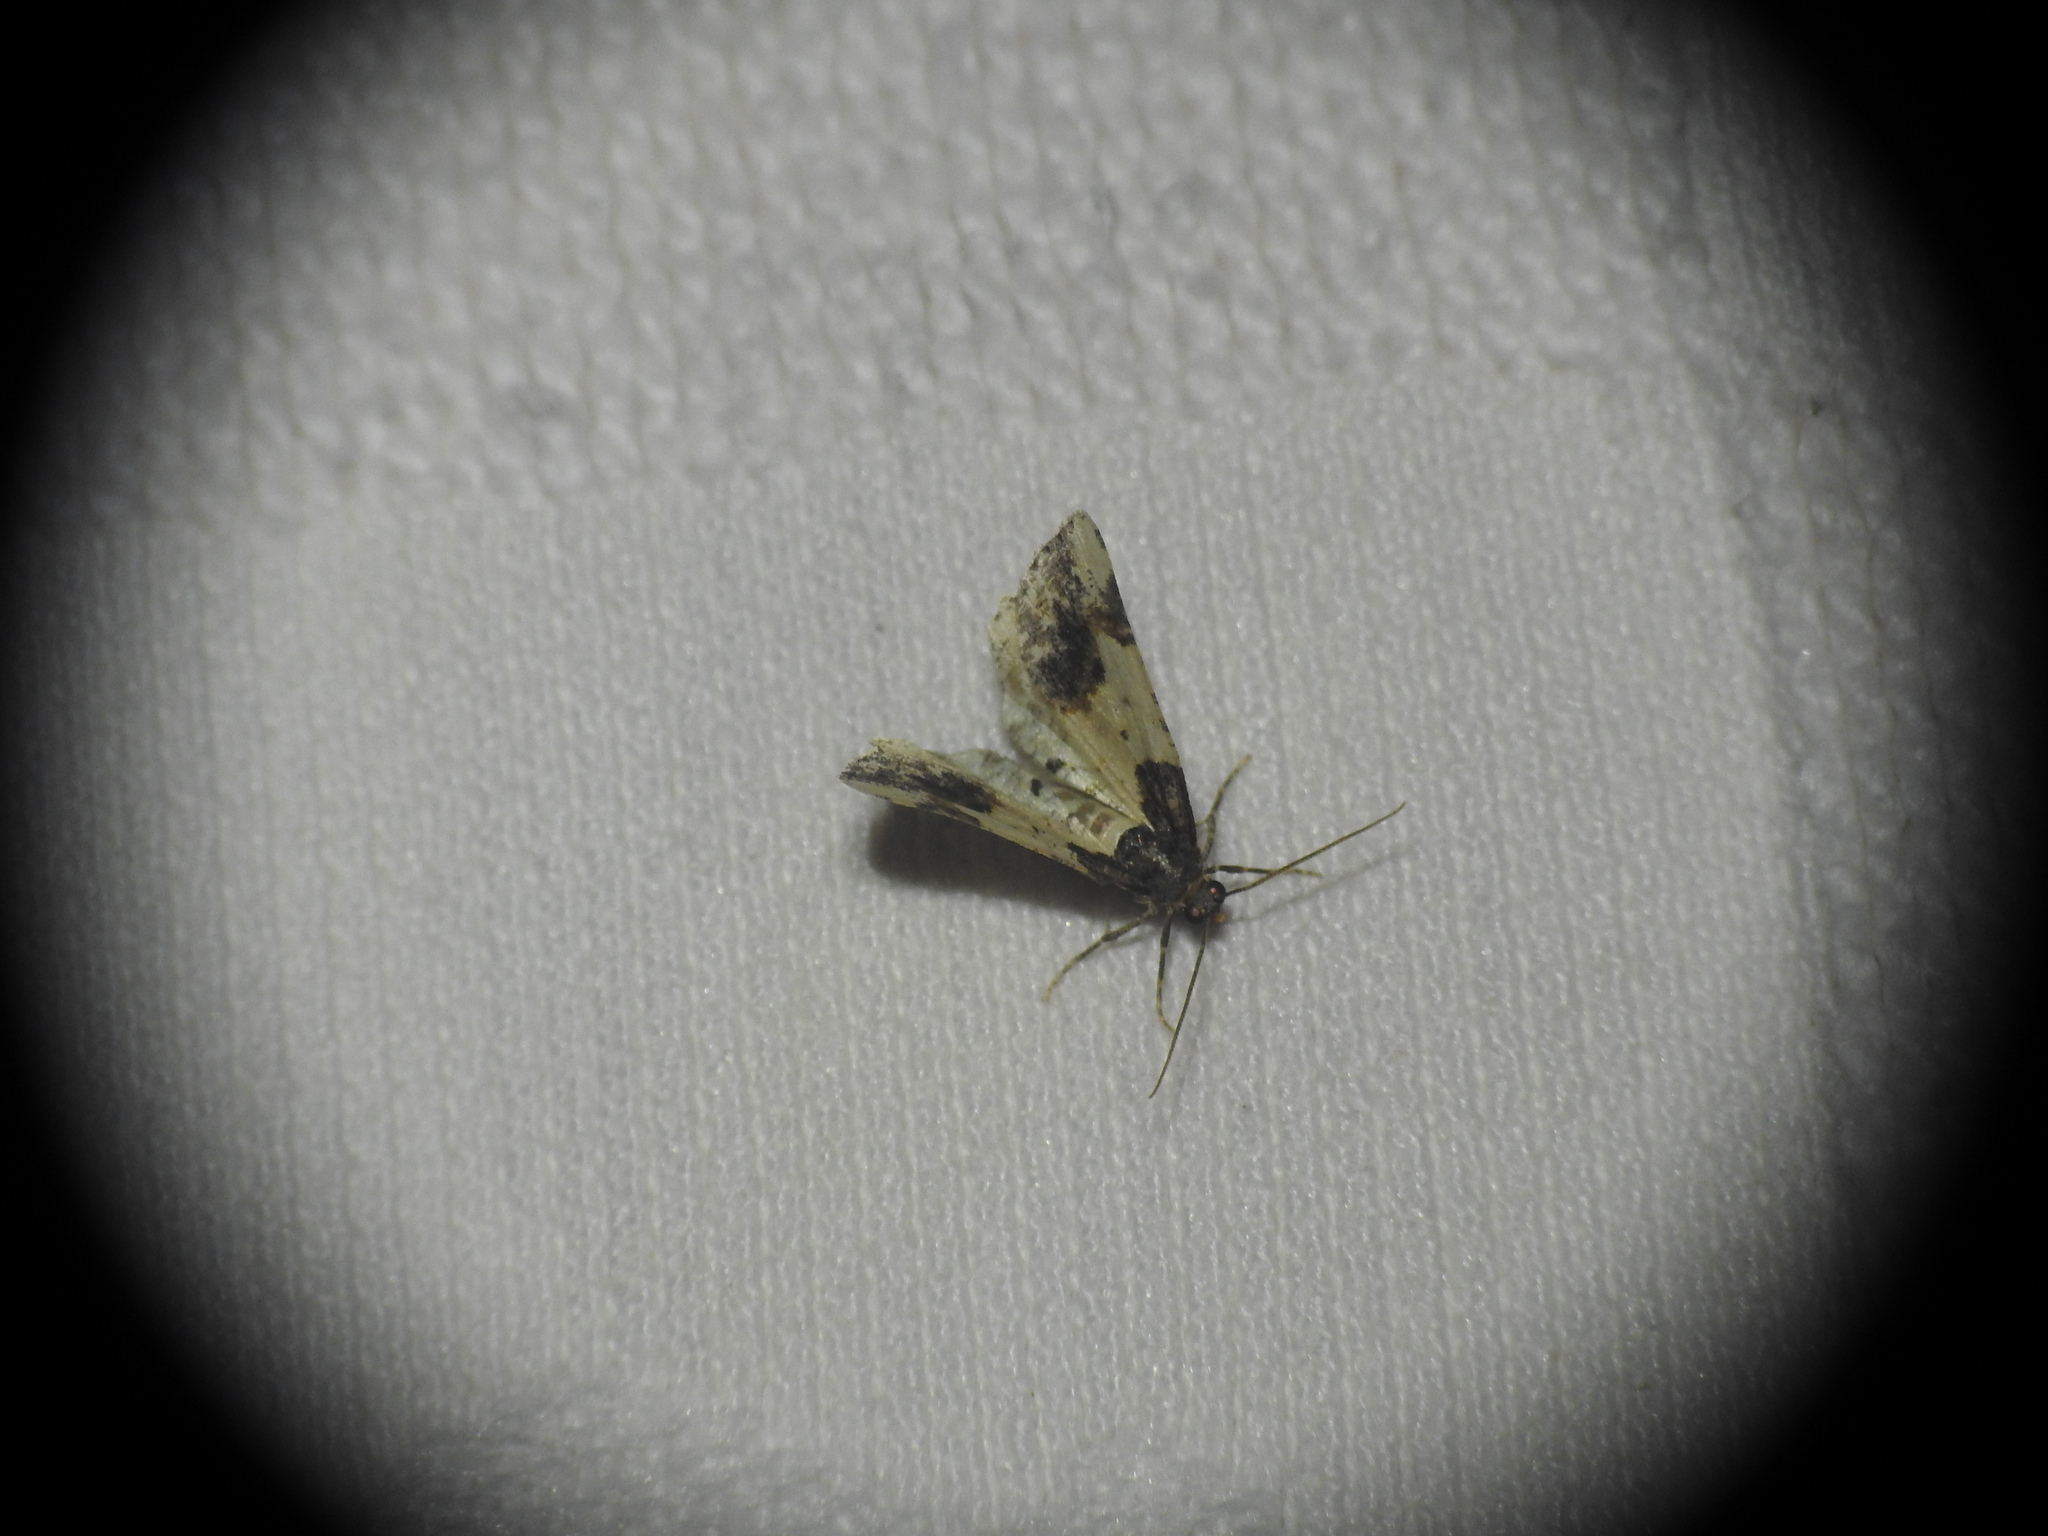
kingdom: Animalia
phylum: Arthropoda
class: Insecta
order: Lepidoptera
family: Geometridae
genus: Ligdia
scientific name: Ligdia adustata
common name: Scorched carpet
